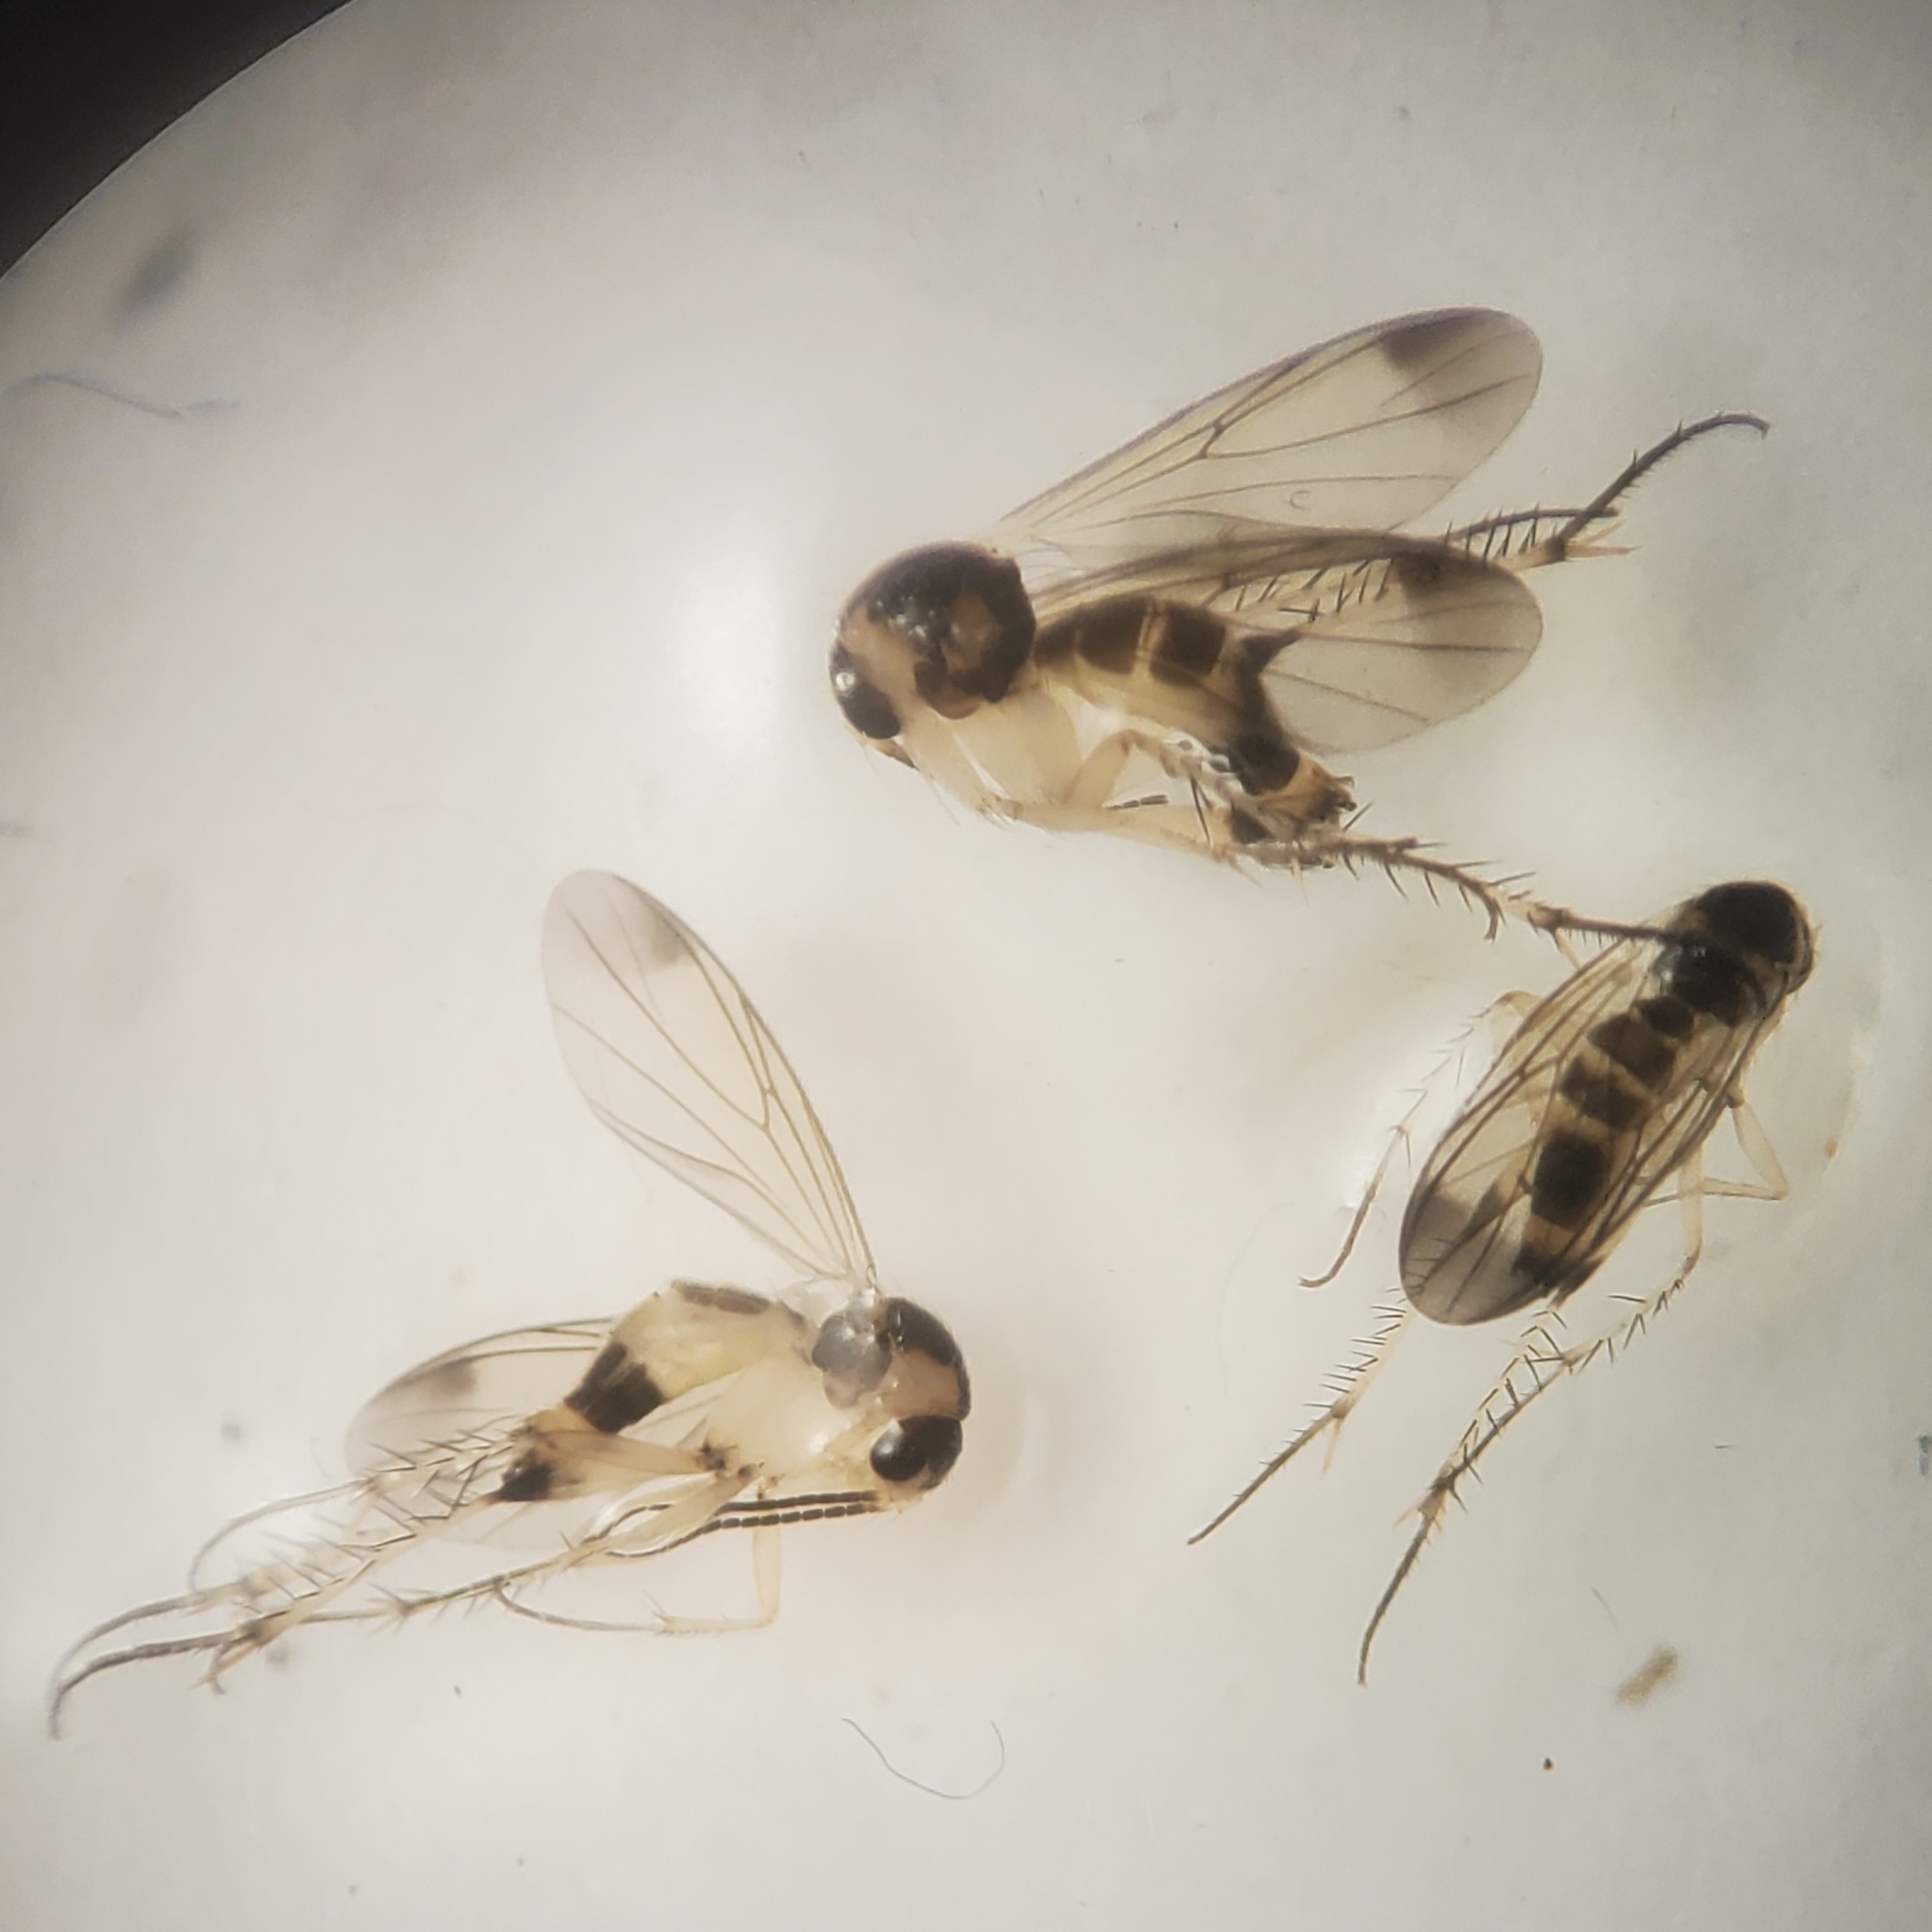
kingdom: Animalia
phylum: Arthropoda
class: Insecta
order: Diptera
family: Mycetophilidae
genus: Rondaniella
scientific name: Rondaniella dimidiata
